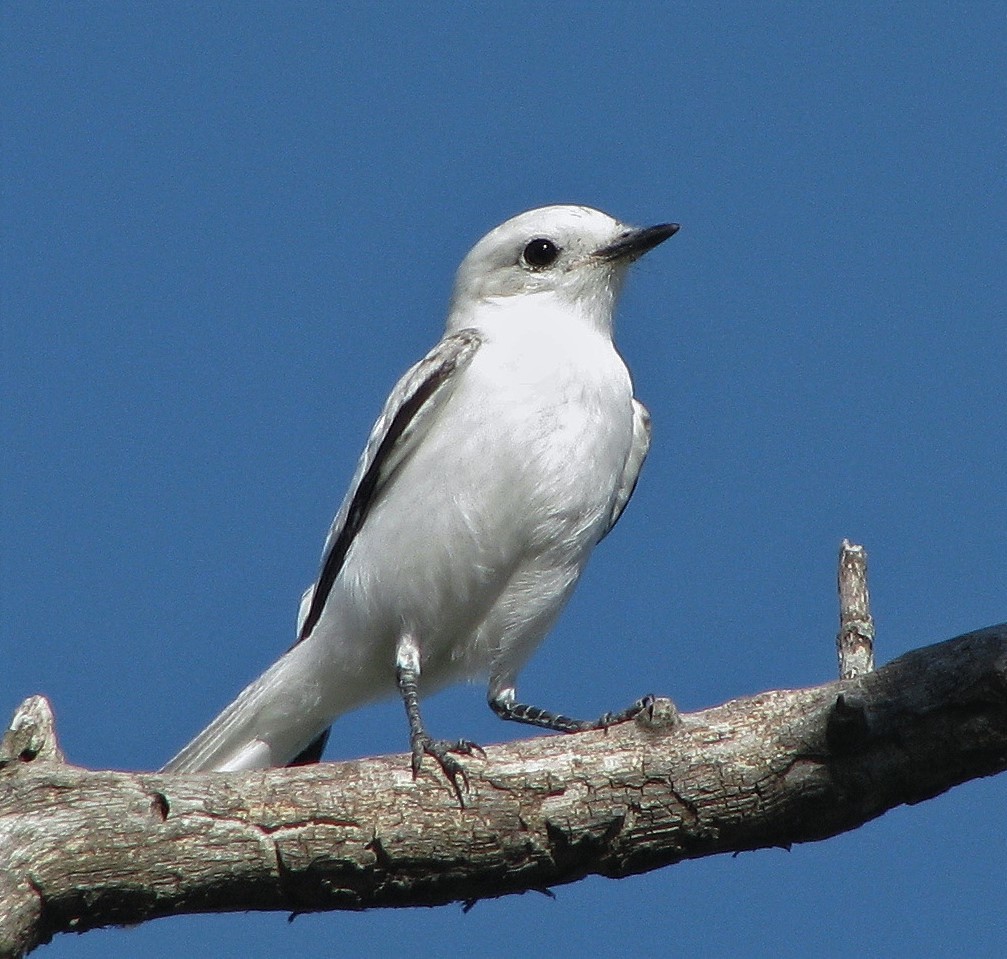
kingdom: Animalia
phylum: Chordata
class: Aves
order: Passeriformes
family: Tyrannidae
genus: Xolmis
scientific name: Xolmis irupero
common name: White monjita
